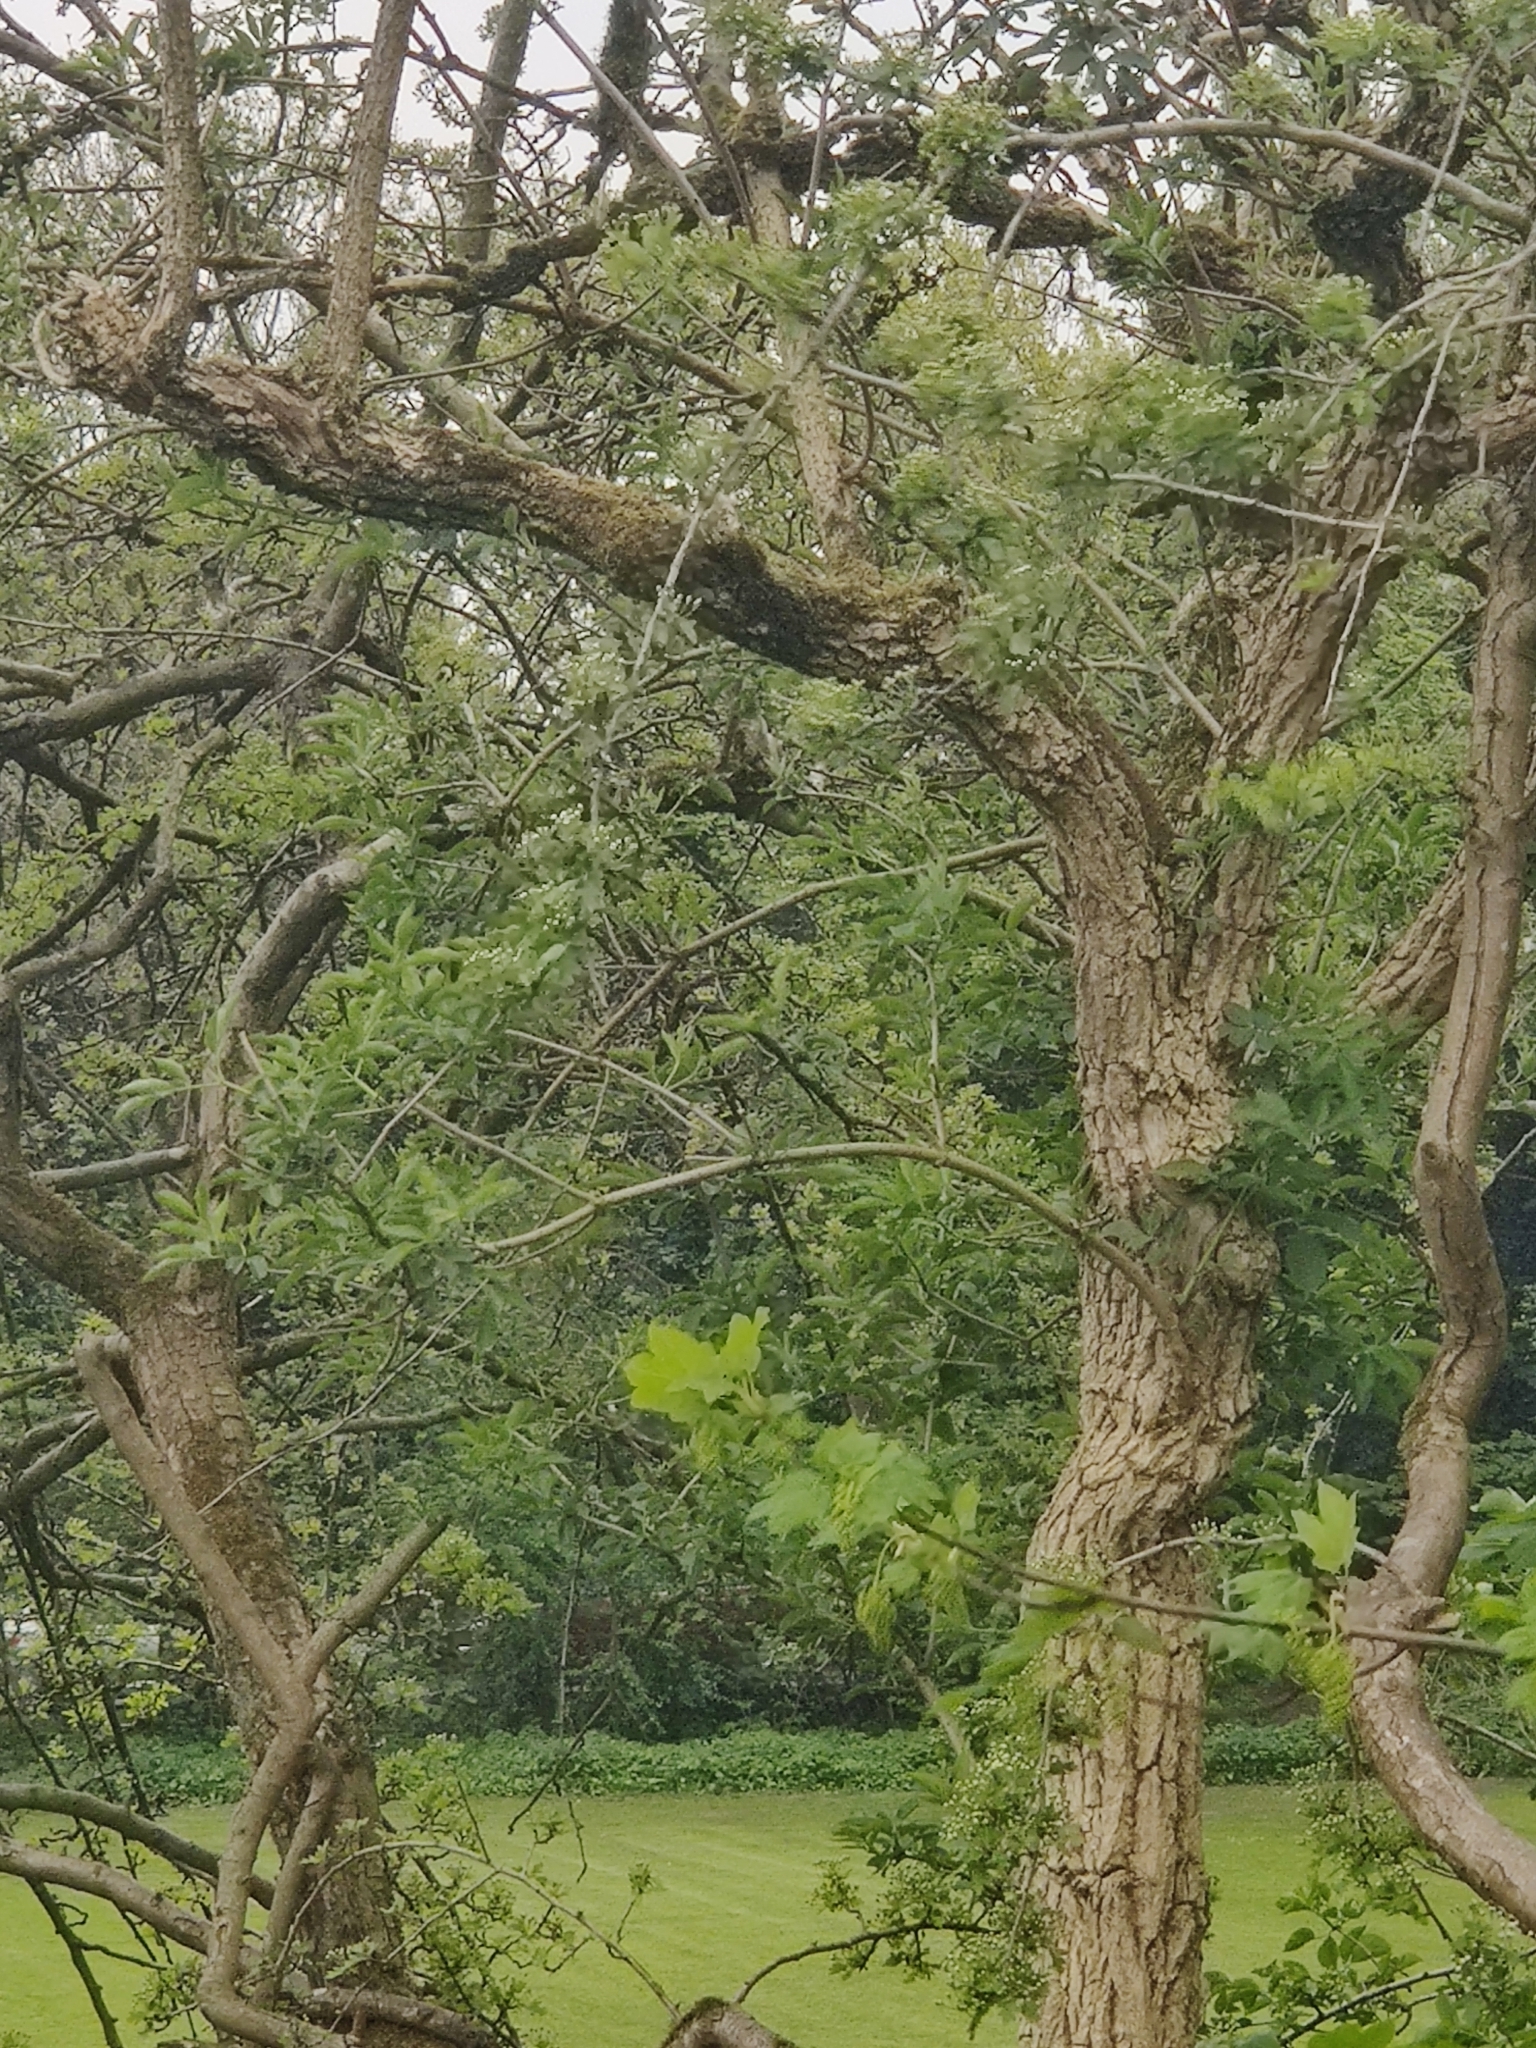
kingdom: Plantae
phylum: Tracheophyta
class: Magnoliopsida
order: Dipsacales
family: Viburnaceae
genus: Sambucus
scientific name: Sambucus nigra
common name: Elder
